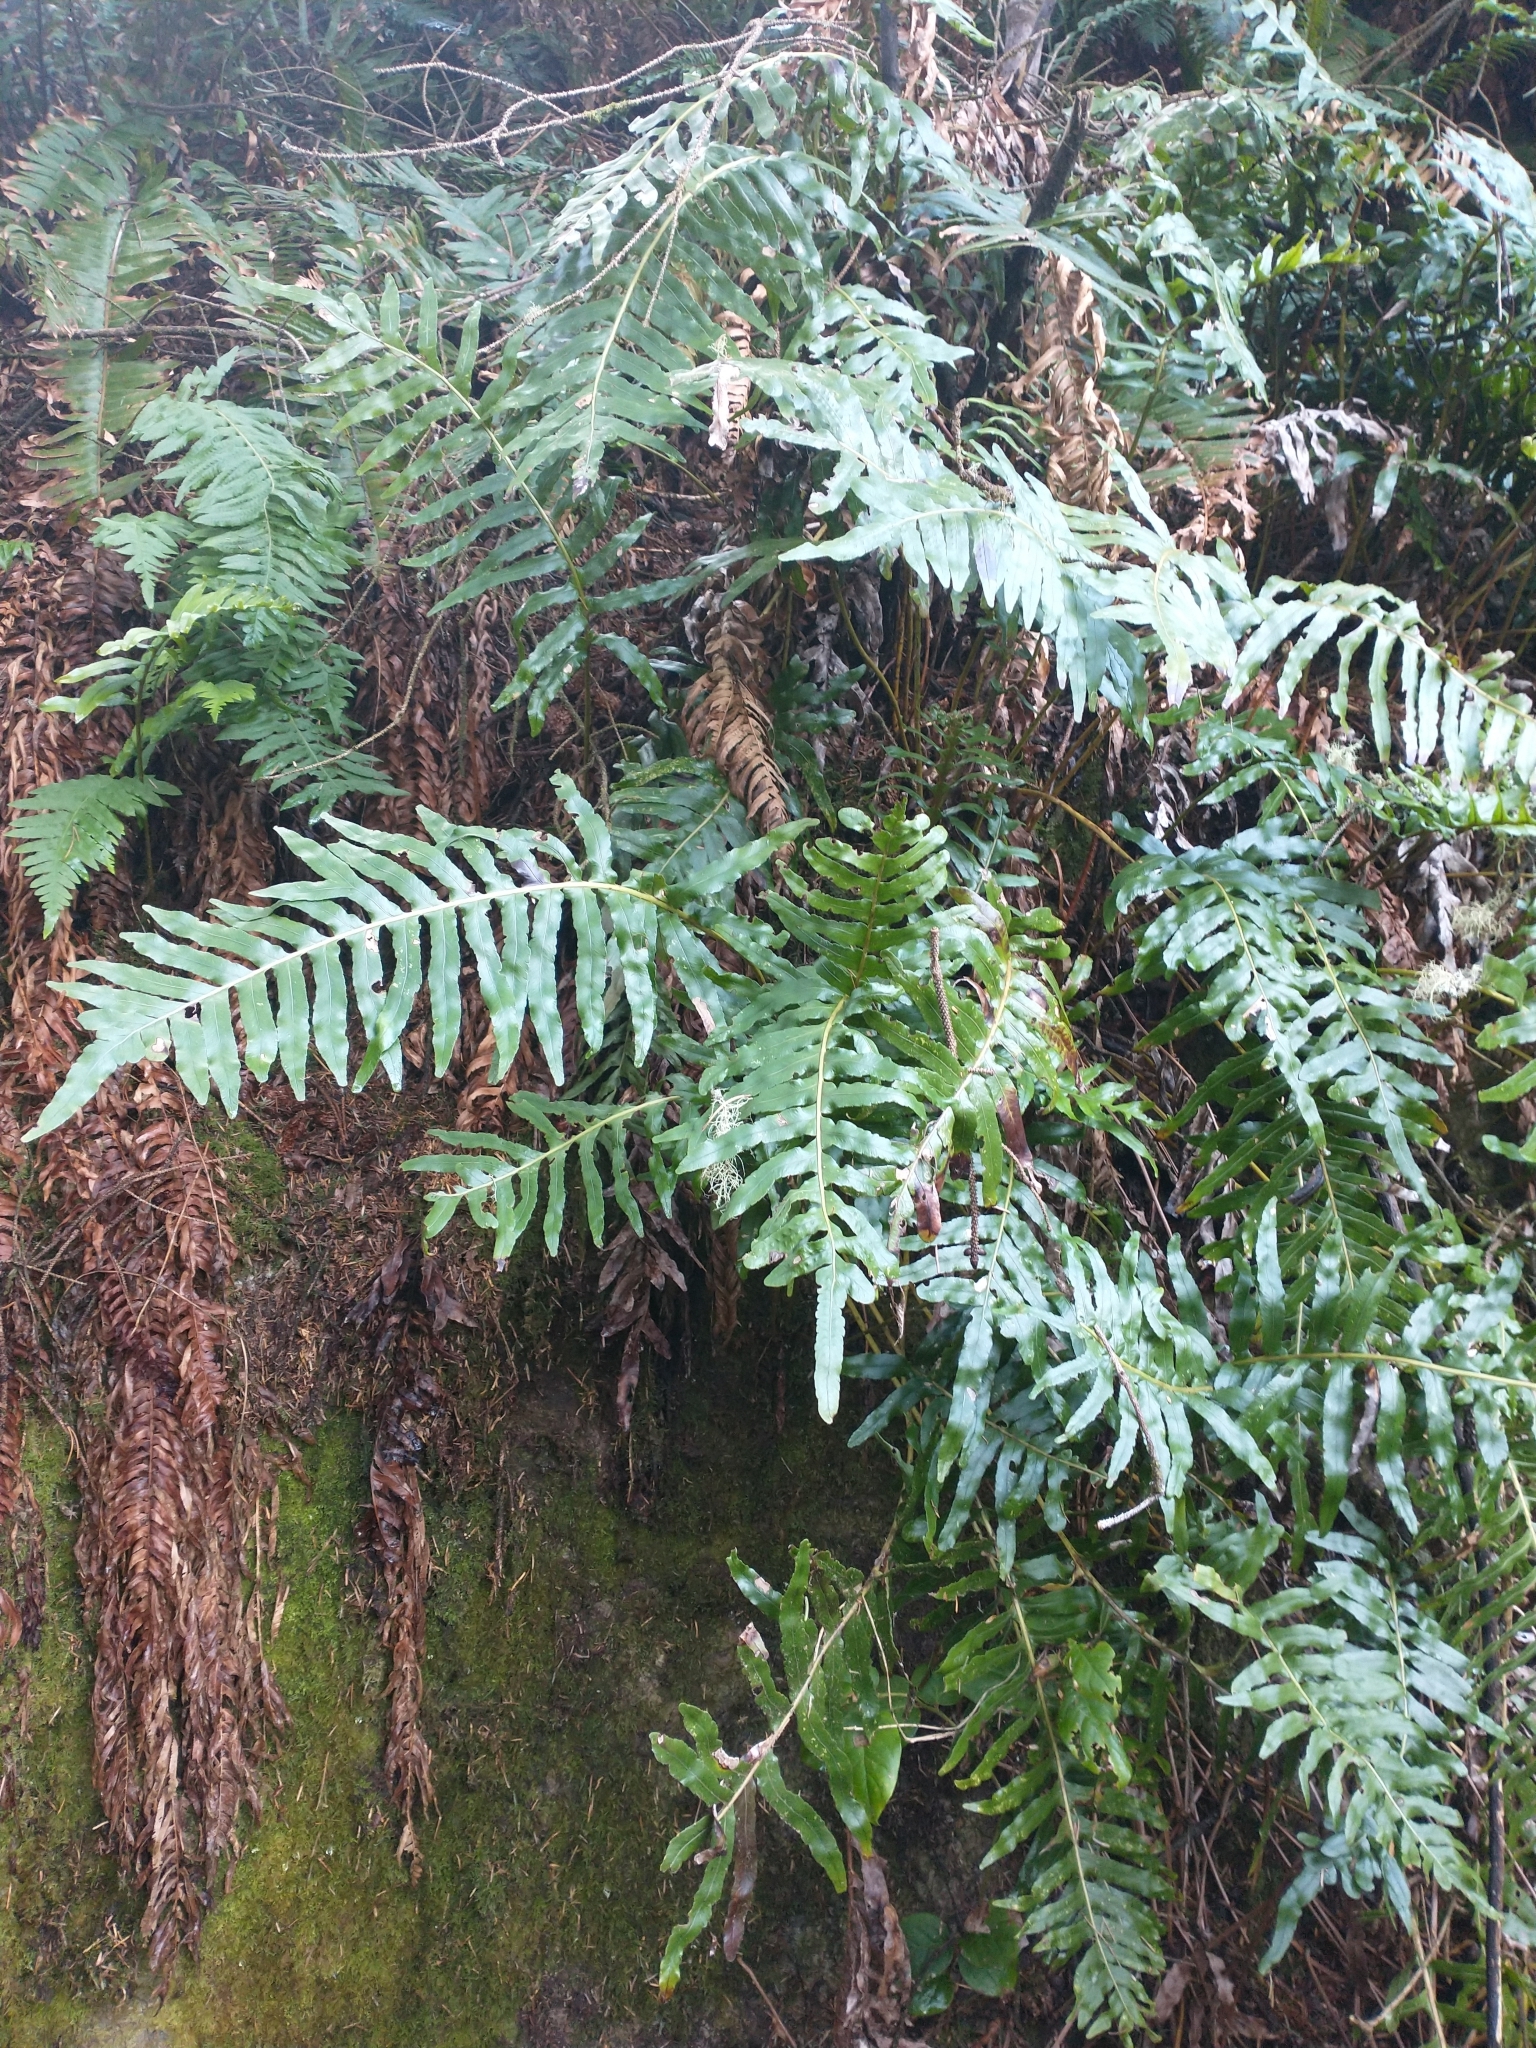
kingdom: Plantae
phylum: Tracheophyta
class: Polypodiopsida
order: Polypodiales
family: Polypodiaceae
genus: Polypodium
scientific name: Polypodium scouleri
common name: Scouler's polypody
